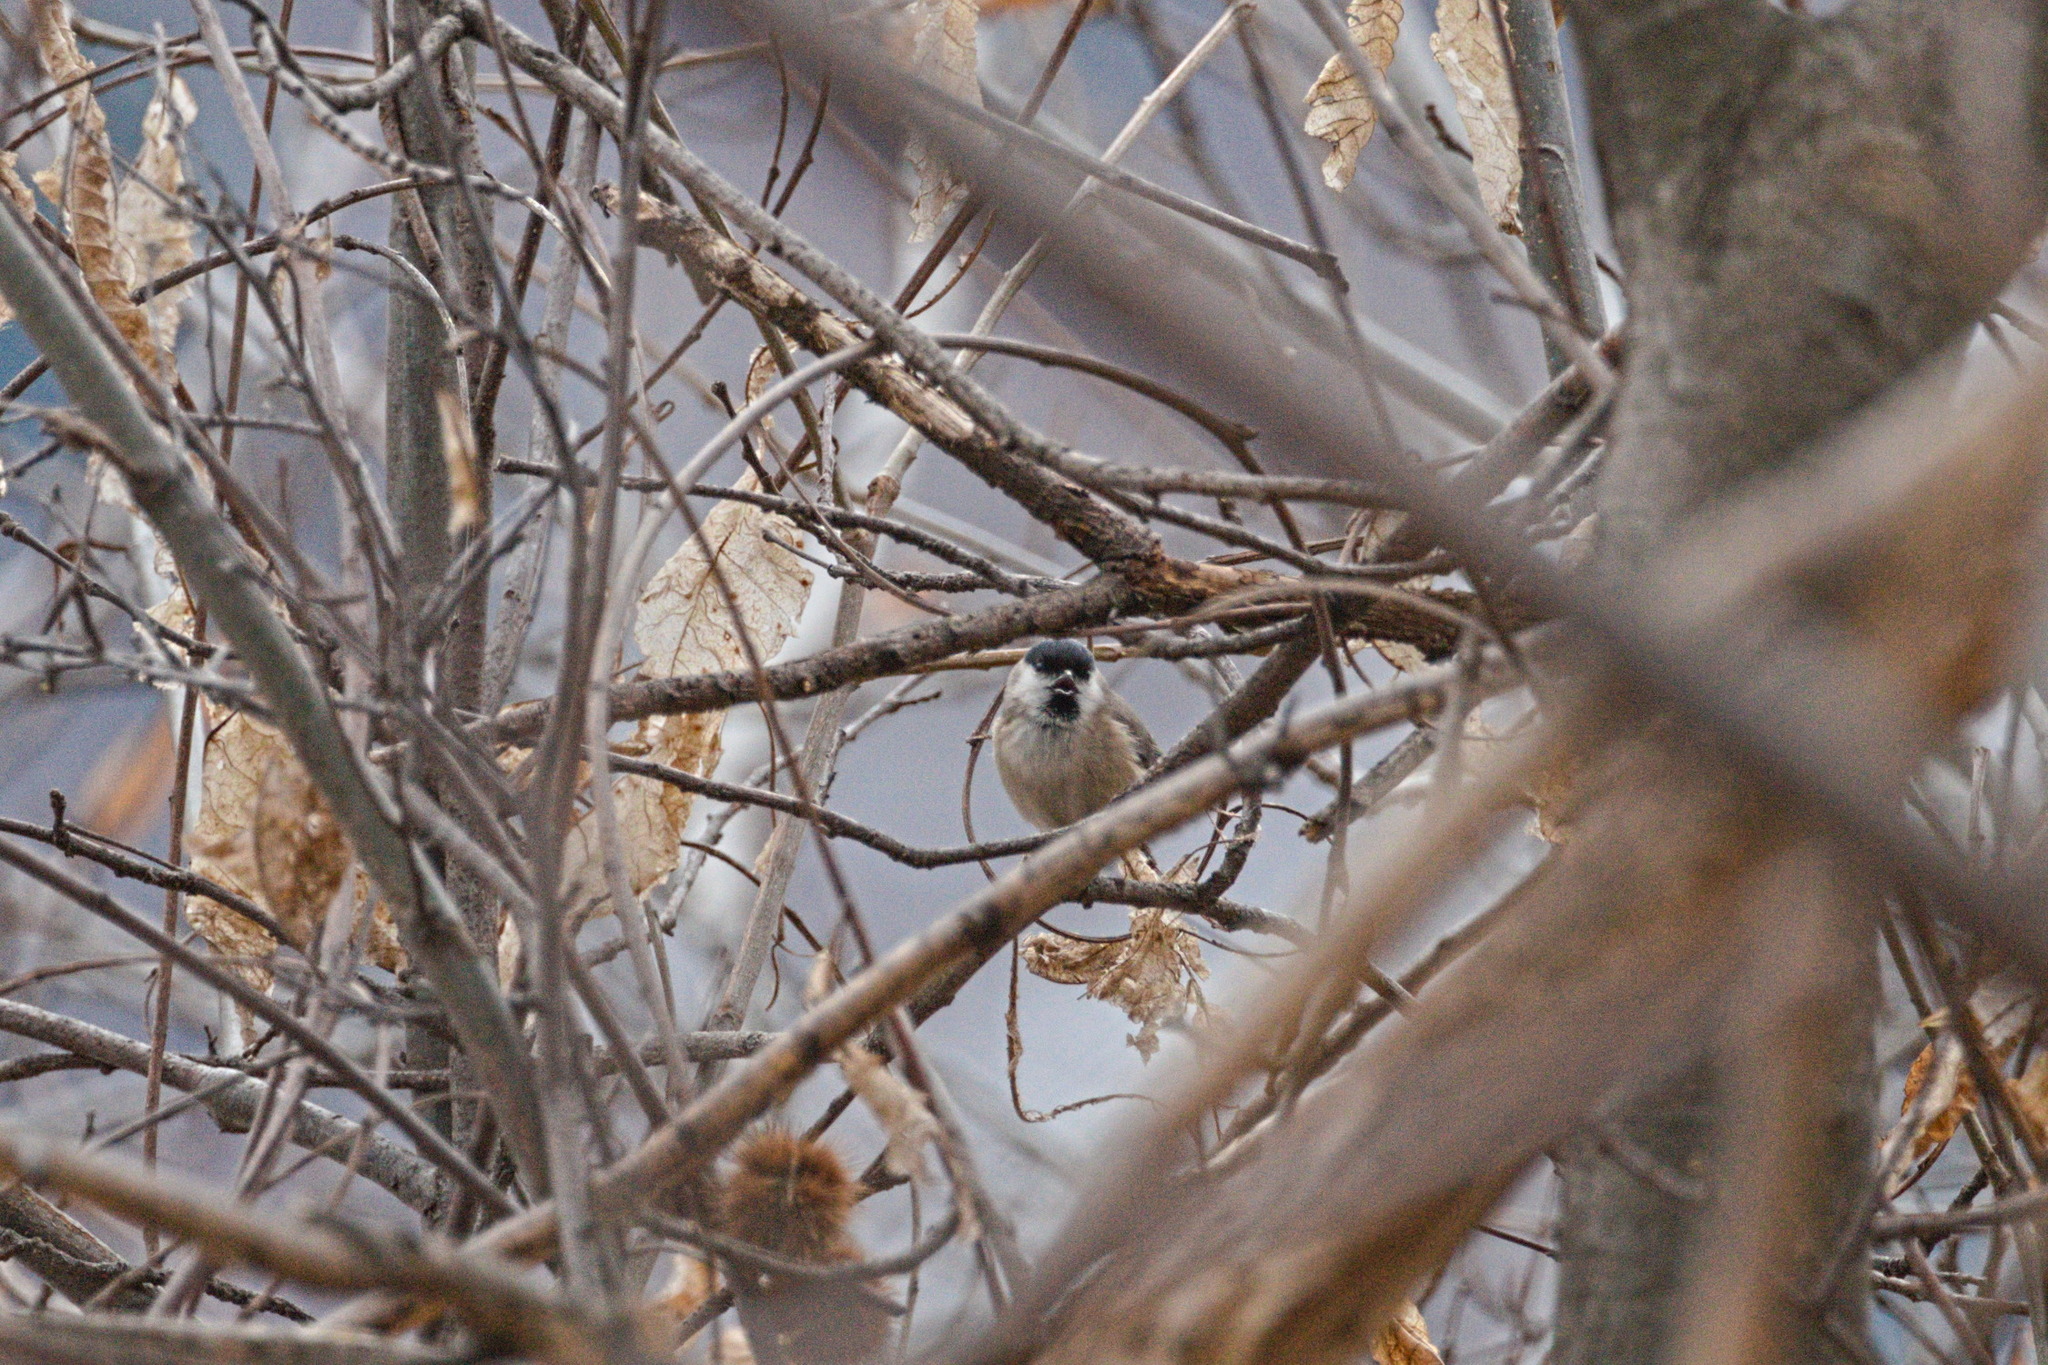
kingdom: Animalia
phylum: Chordata
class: Aves
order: Passeriformes
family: Paridae
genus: Poecile
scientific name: Poecile palustris
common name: Marsh tit
